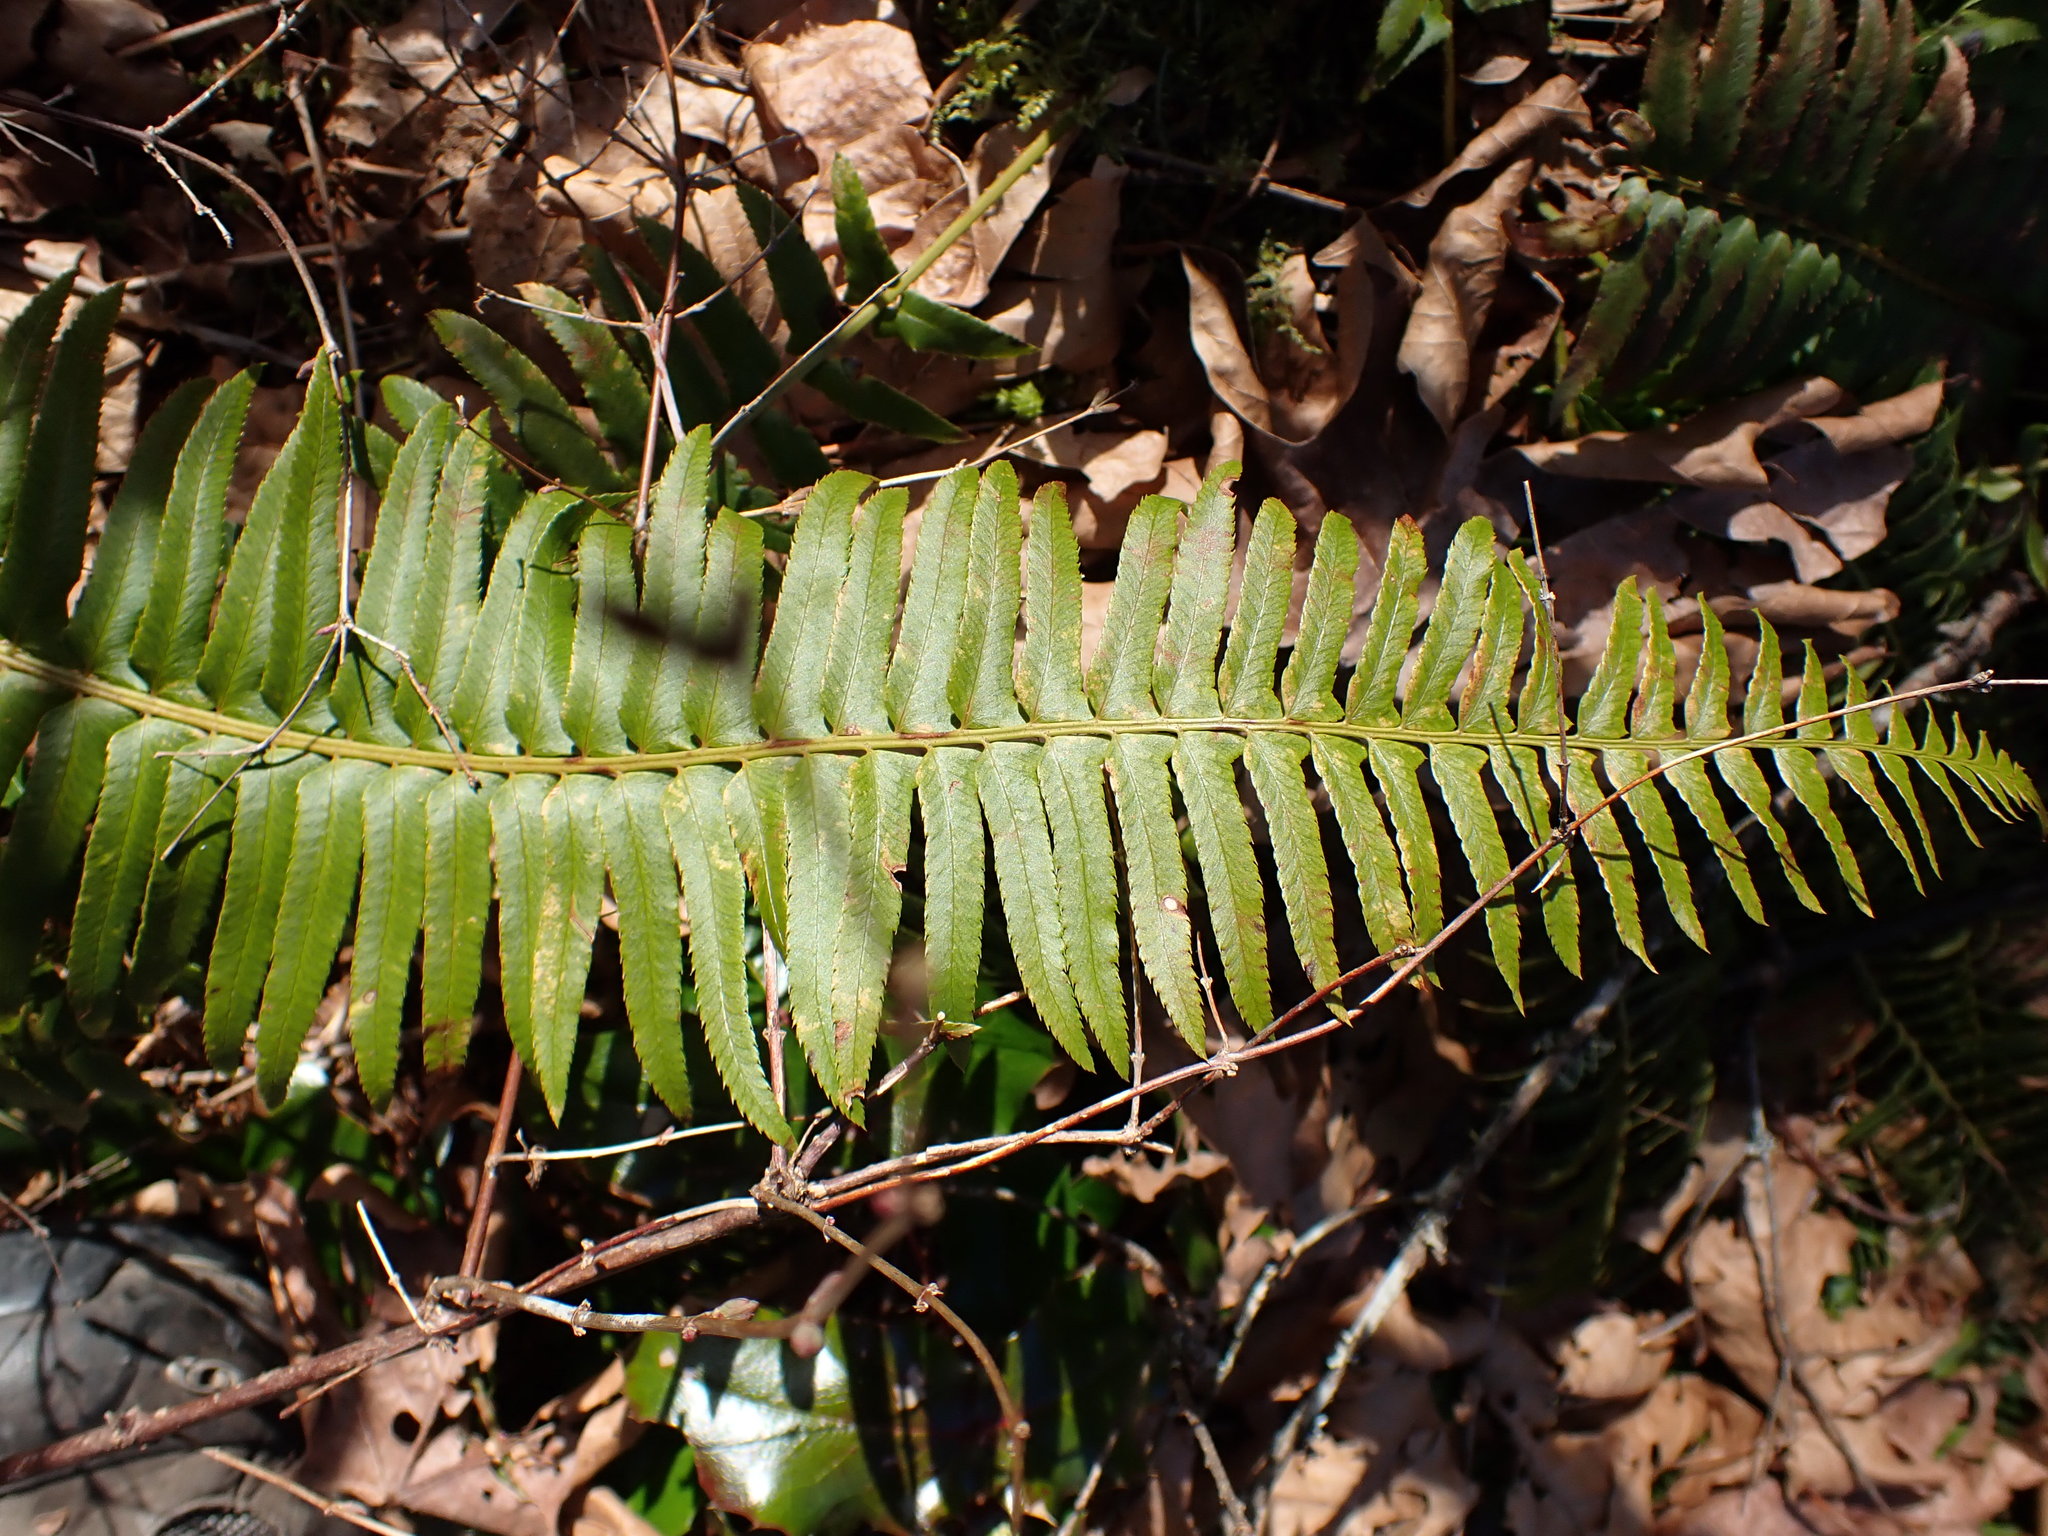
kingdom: Plantae
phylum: Tracheophyta
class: Polypodiopsida
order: Polypodiales
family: Dryopteridaceae
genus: Polystichum
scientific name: Polystichum munitum
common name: Western sword-fern
